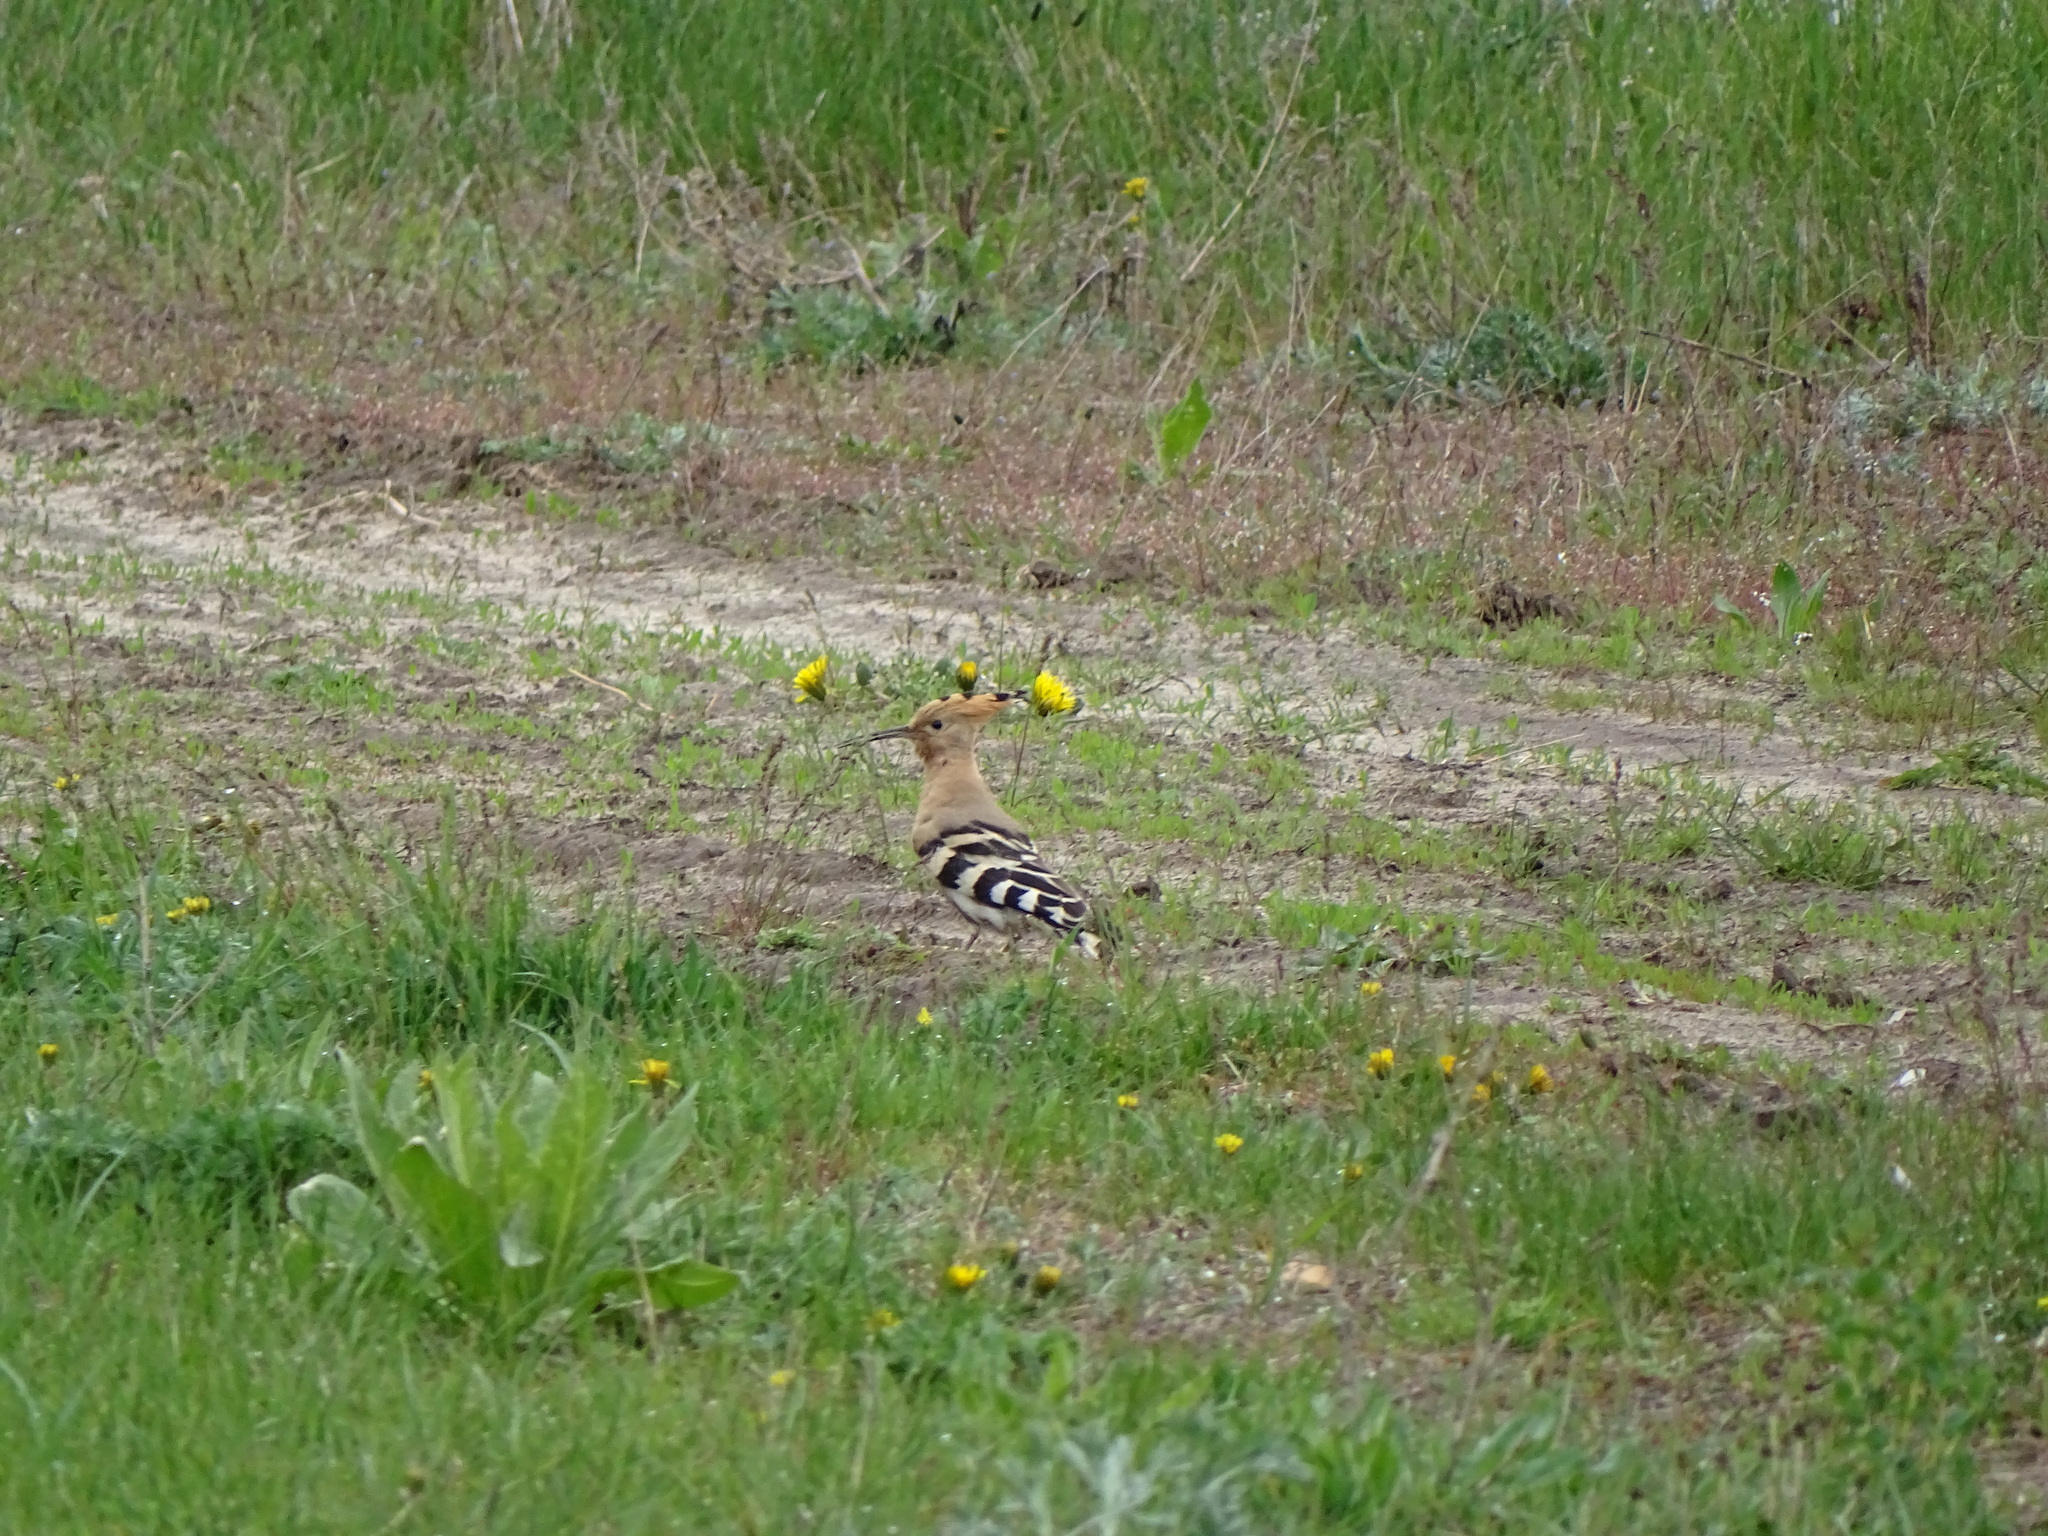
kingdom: Animalia
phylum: Chordata
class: Aves
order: Bucerotiformes
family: Upupidae
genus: Upupa
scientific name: Upupa epops
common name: Eurasian hoopoe
